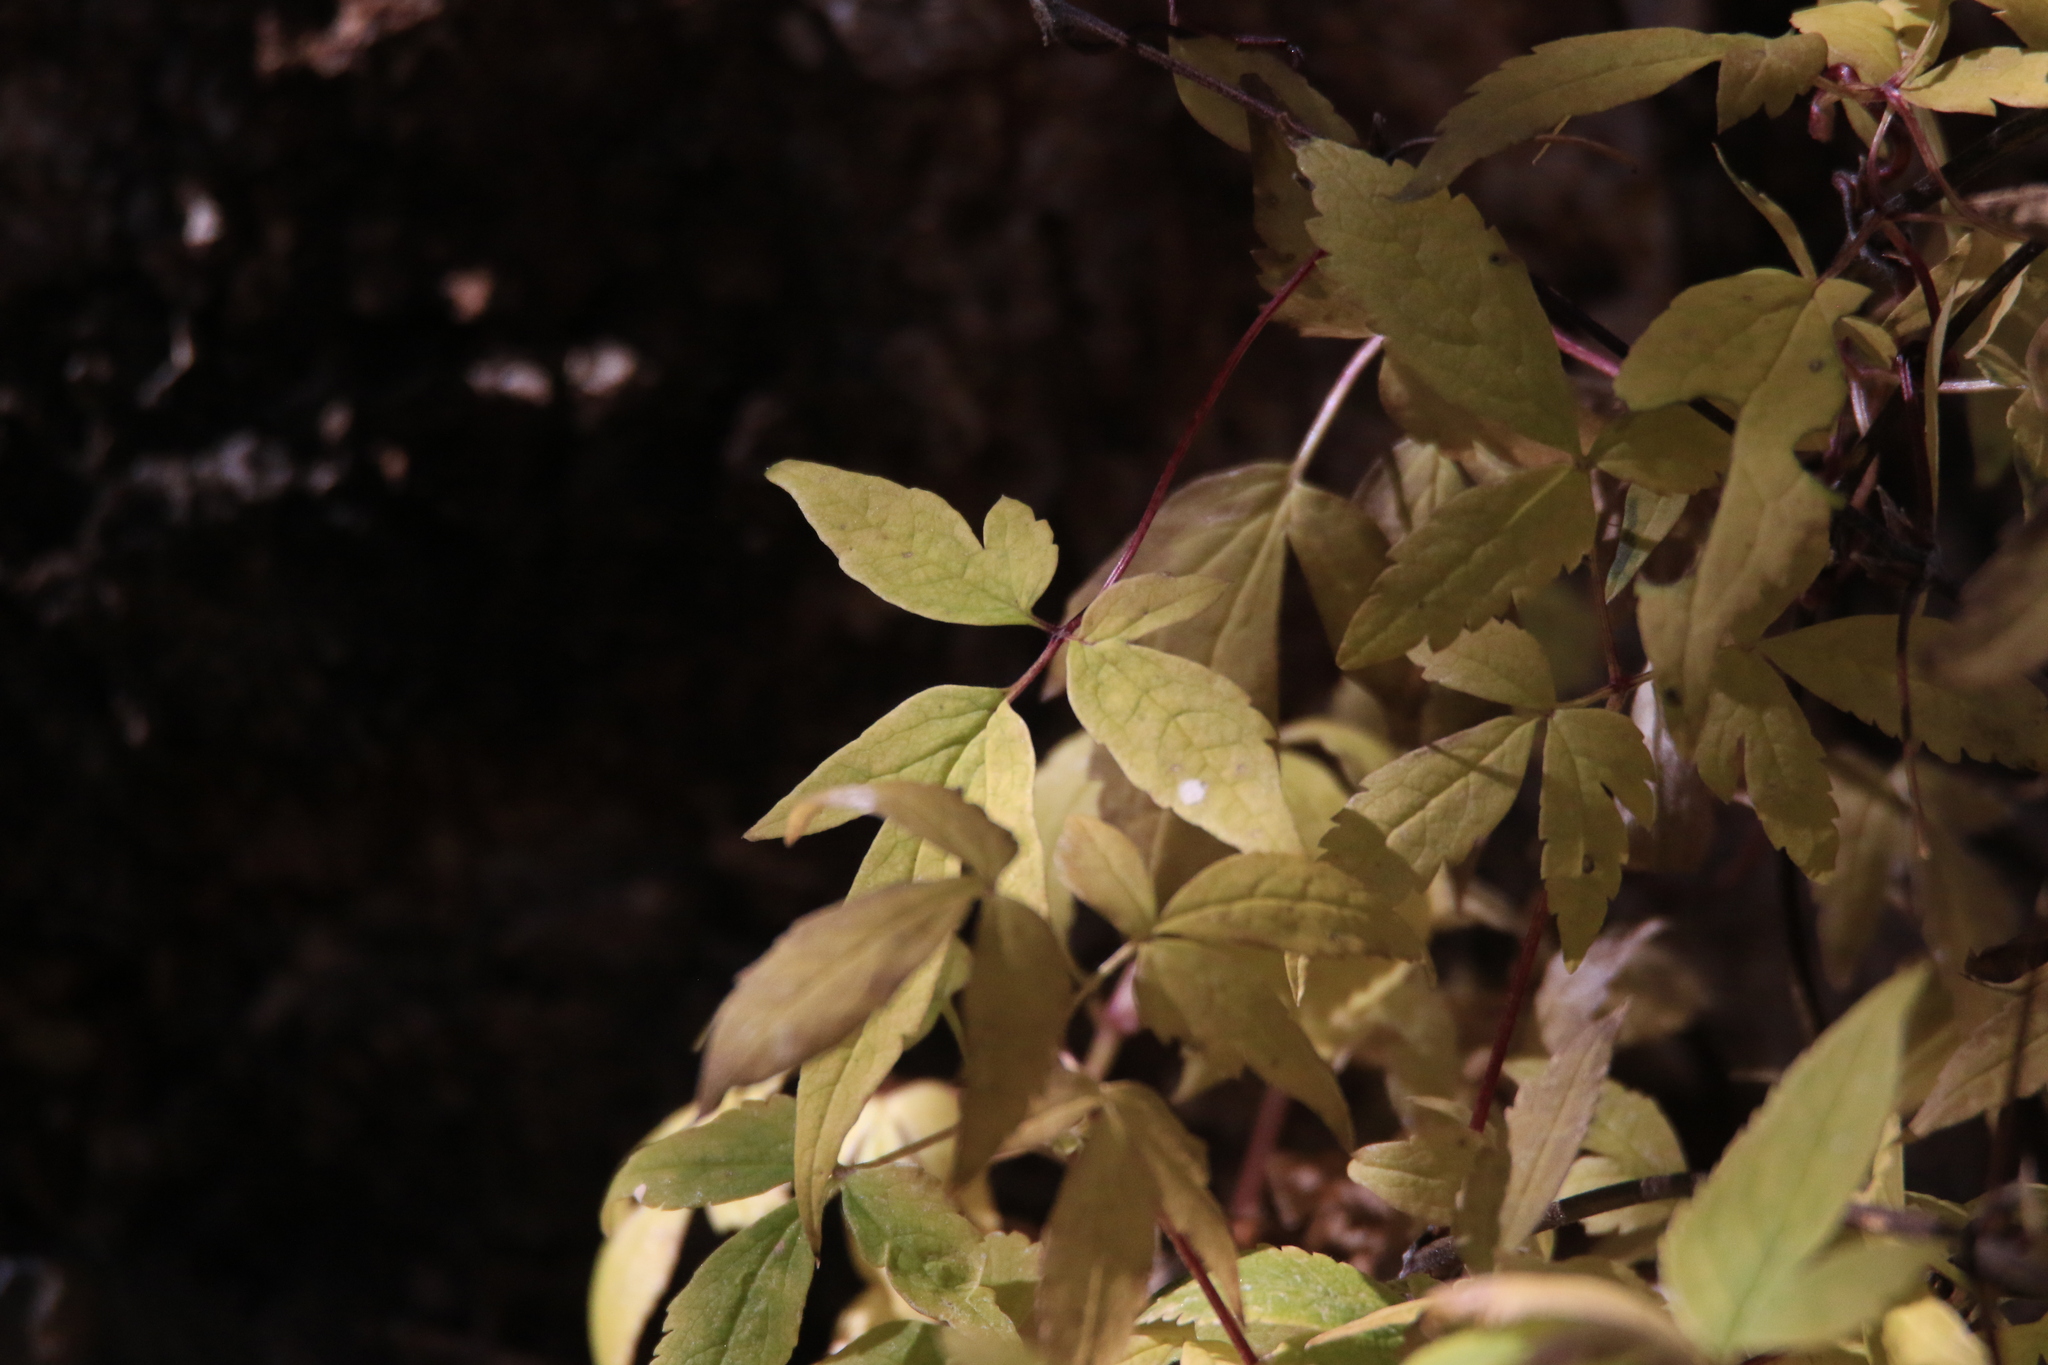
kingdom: Plantae
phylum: Tracheophyta
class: Magnoliopsida
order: Ranunculales
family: Ranunculaceae
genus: Clematis
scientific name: Clematis sibirica
